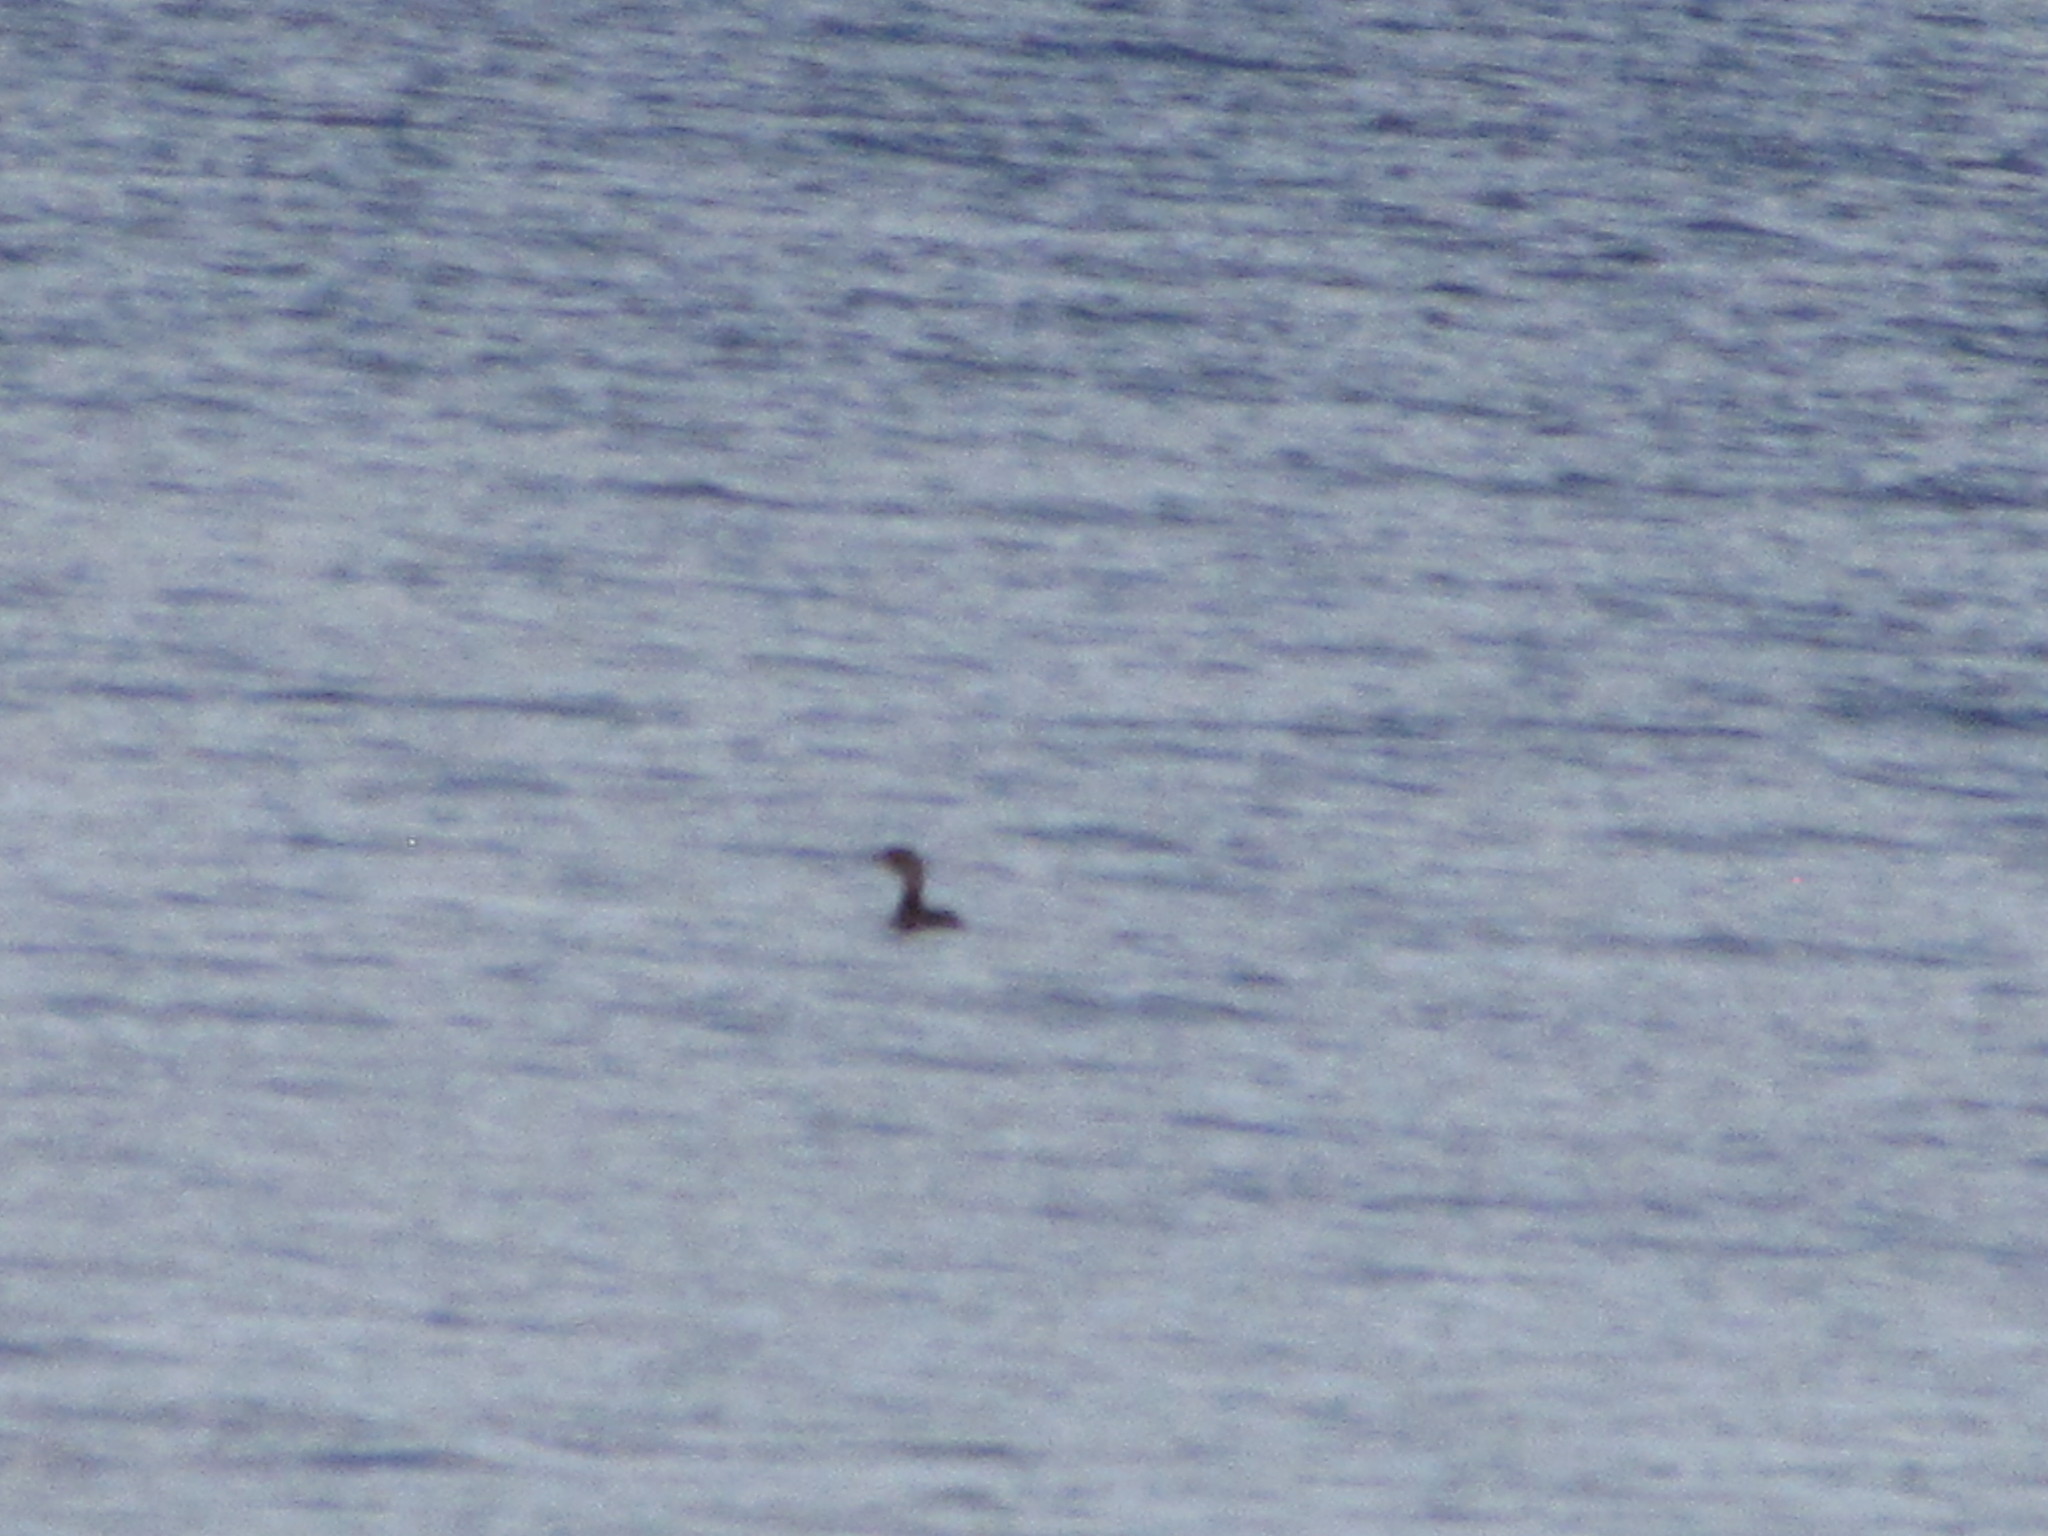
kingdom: Animalia
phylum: Chordata
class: Aves
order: Podicipediformes
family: Podicipedidae
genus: Podilymbus
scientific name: Podilymbus podiceps
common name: Pied-billed grebe
